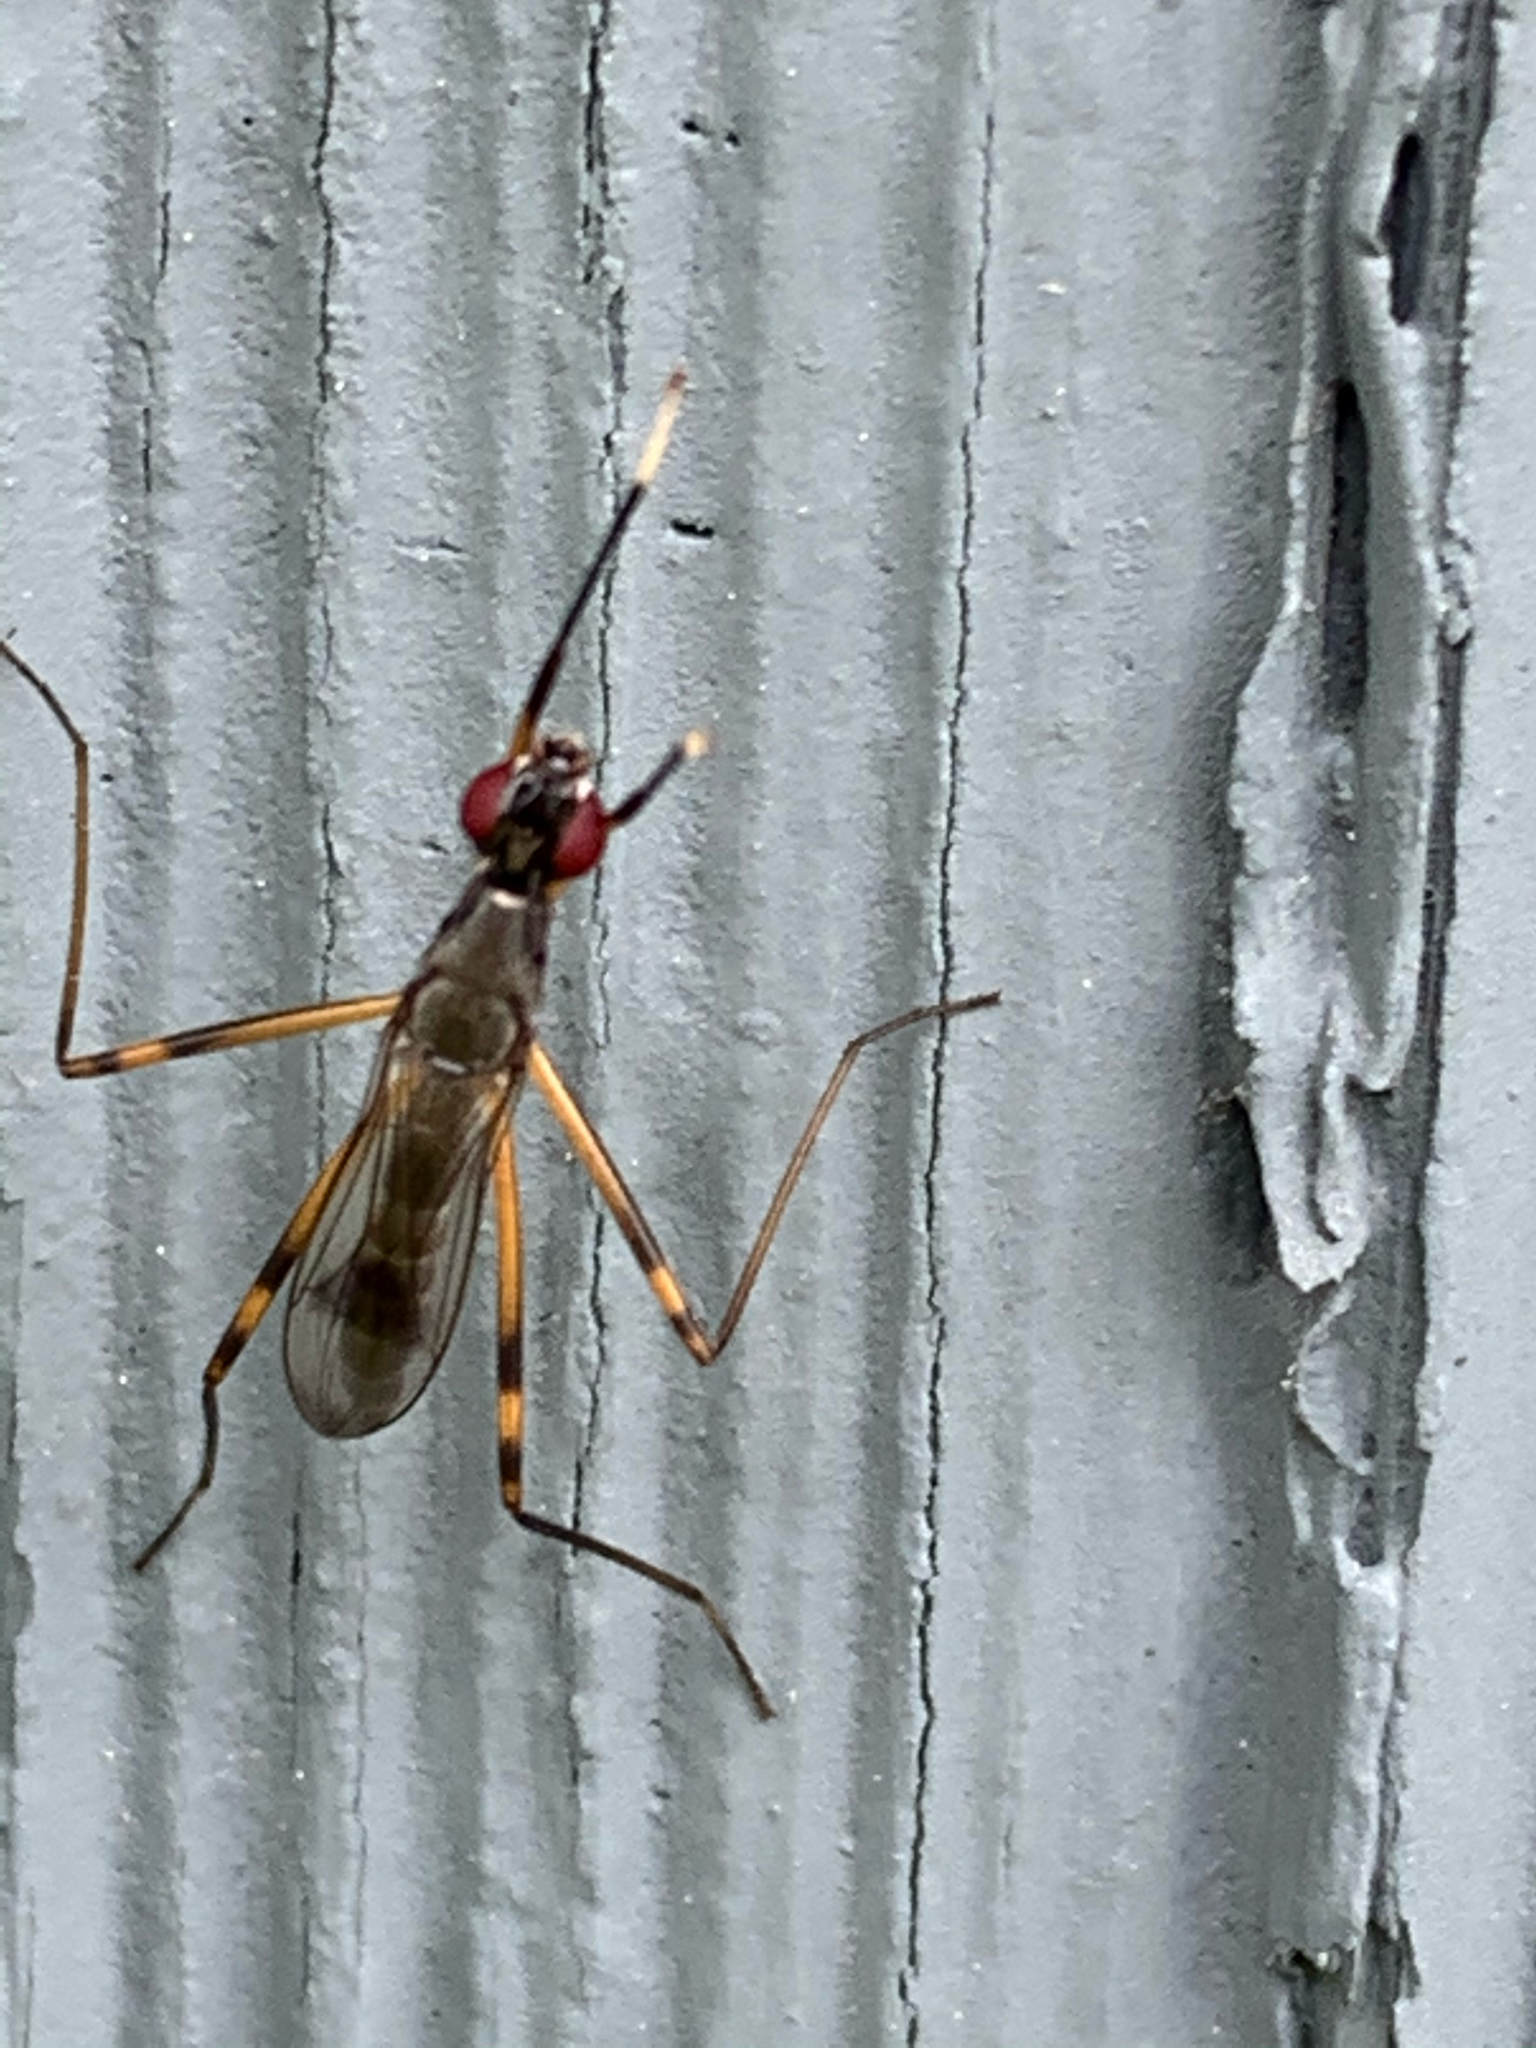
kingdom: Animalia
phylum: Arthropoda
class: Insecta
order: Diptera
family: Micropezidae
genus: Rainieria
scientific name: Rainieria antennaepes
